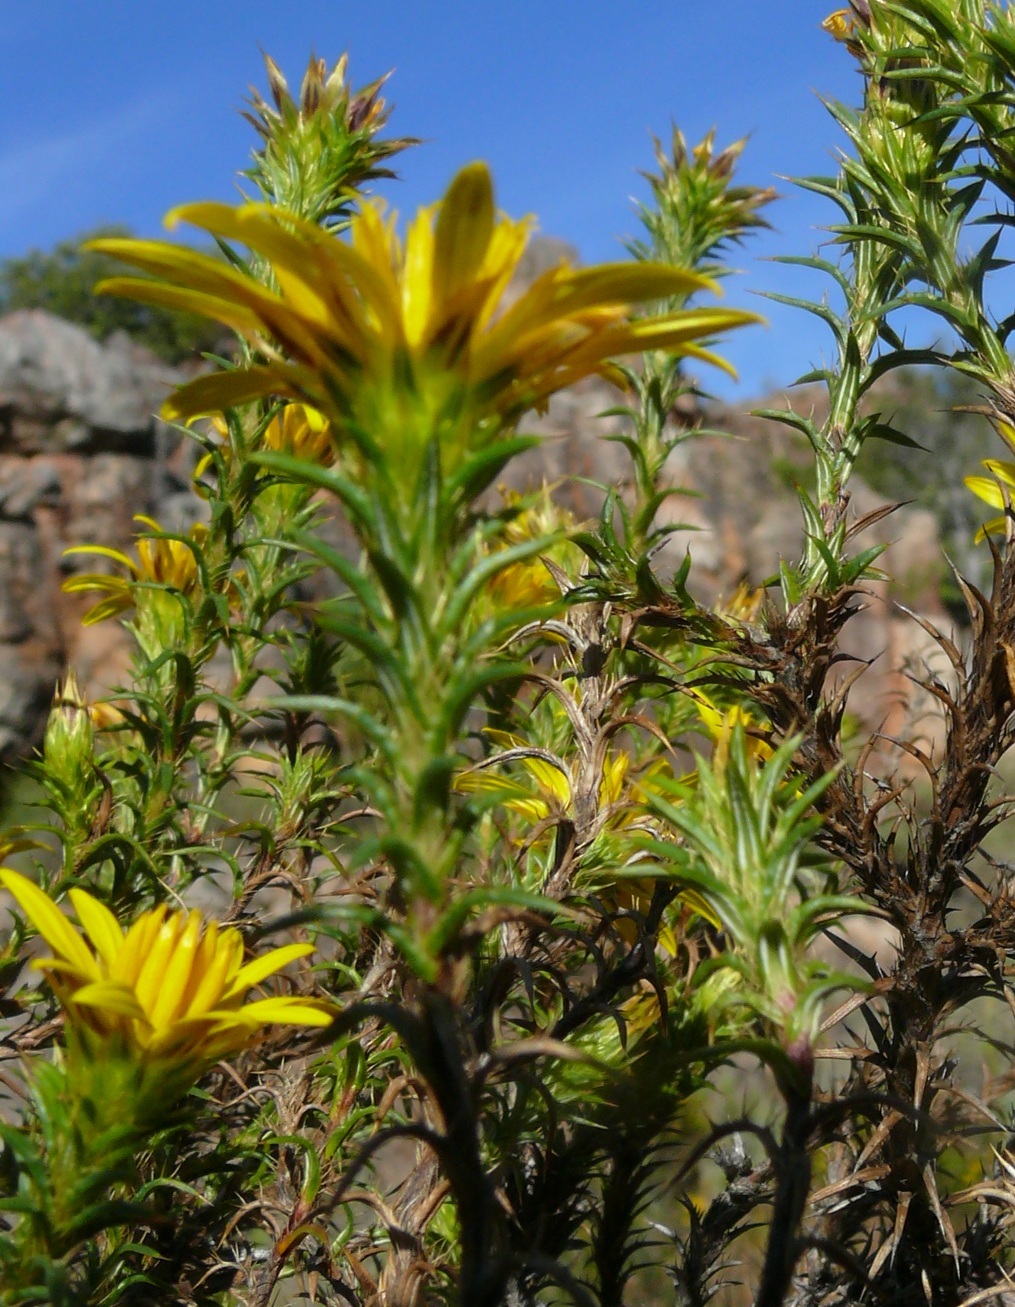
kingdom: Plantae
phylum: Tracheophyta
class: Magnoliopsida
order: Asterales
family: Asteraceae
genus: Cullumia
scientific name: Cullumia bisulca
